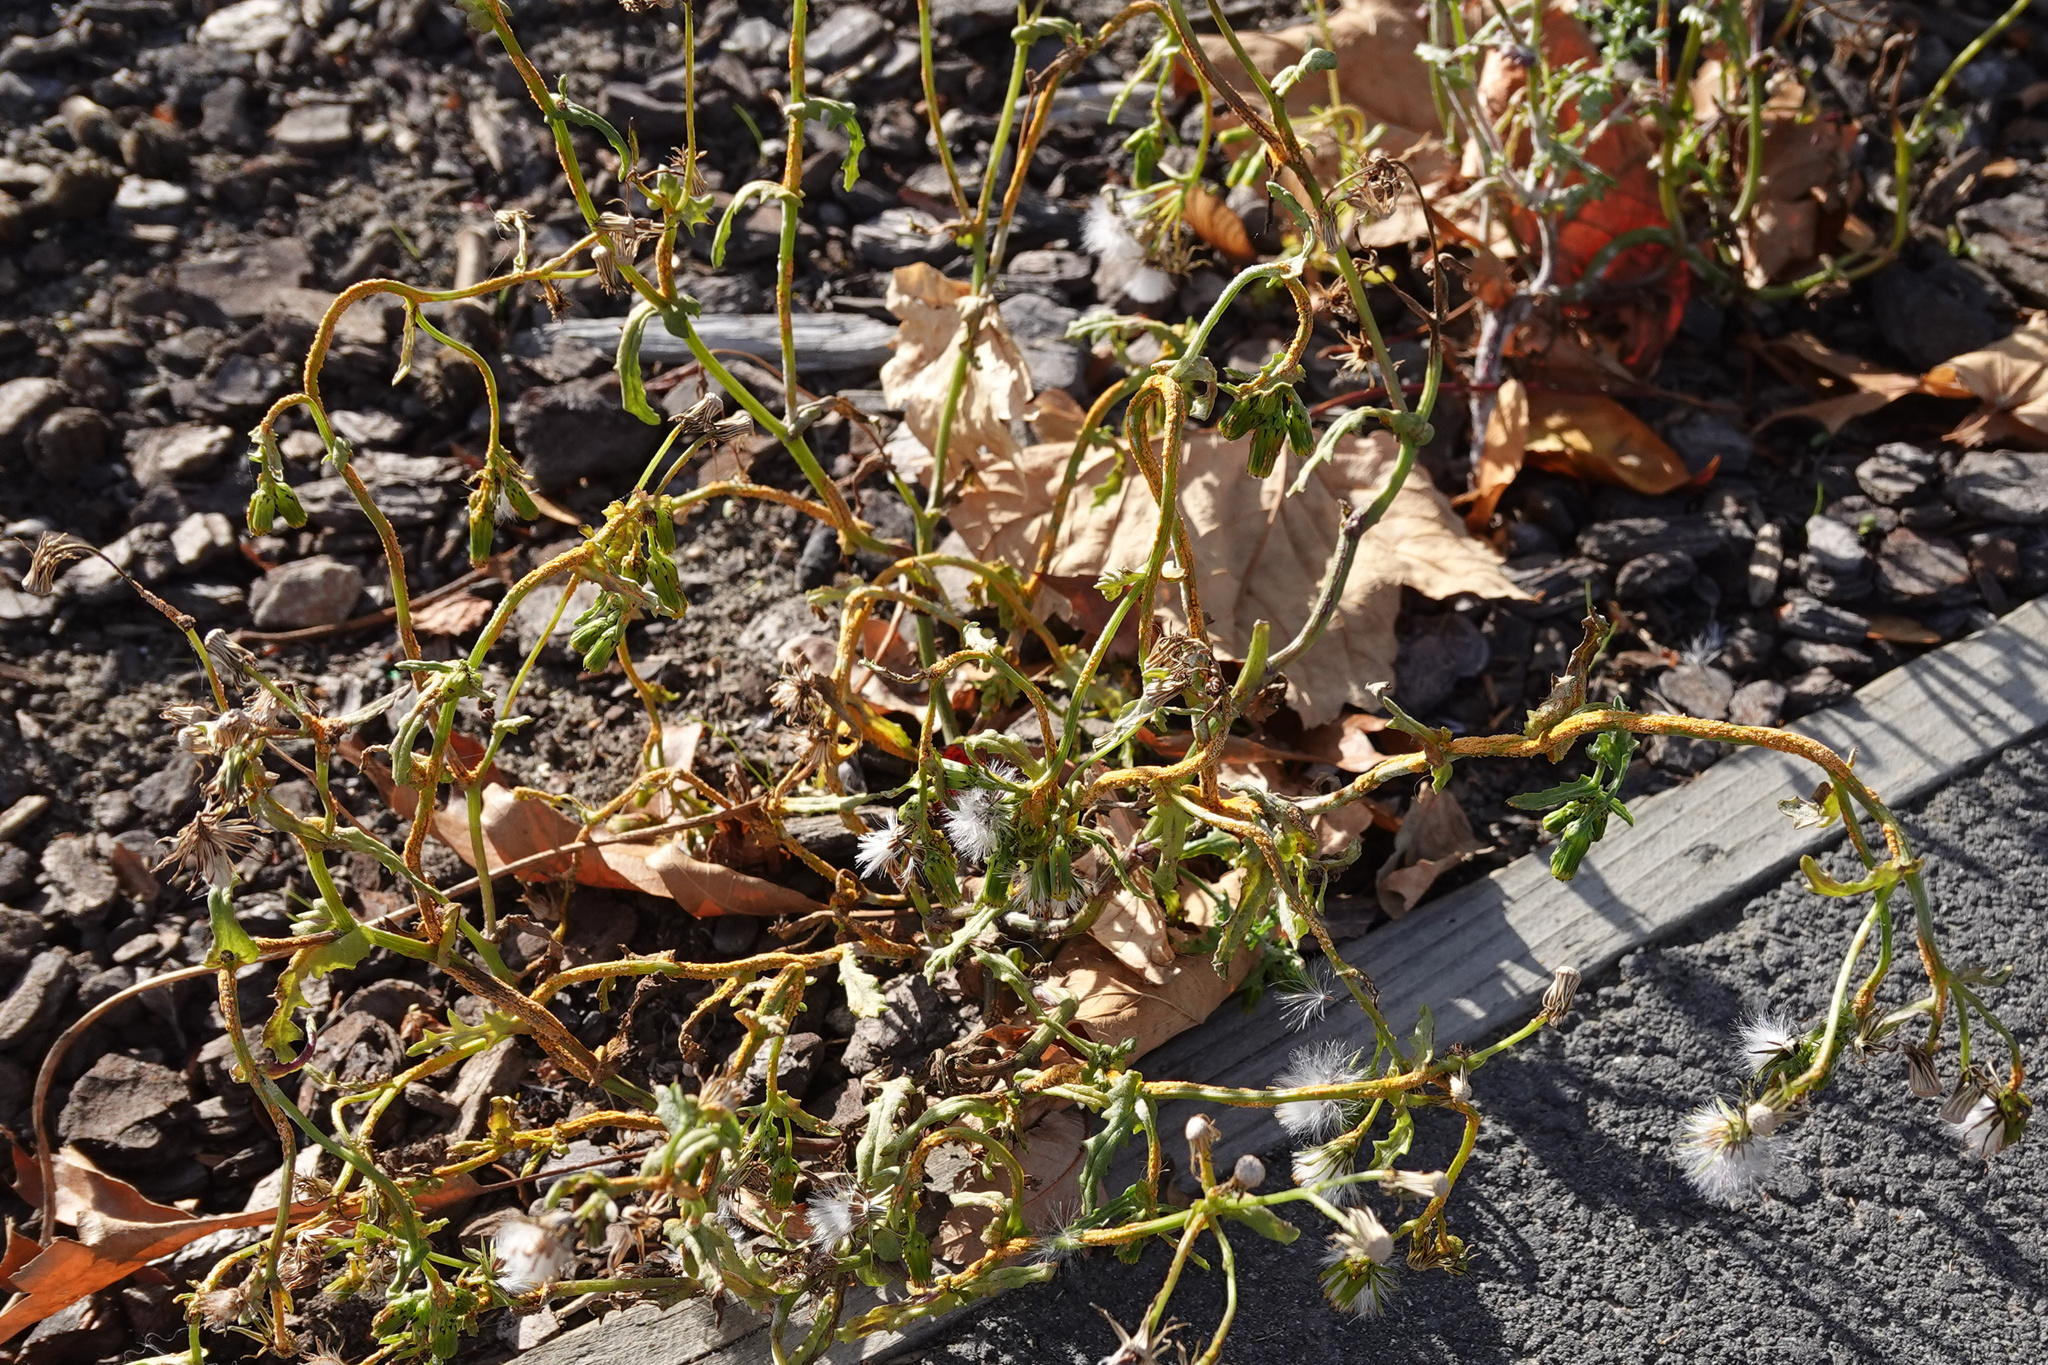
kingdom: Fungi
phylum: Basidiomycota
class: Pucciniomycetes
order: Pucciniales
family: Pucciniaceae
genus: Puccinia
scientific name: Puccinia lagenophorae
